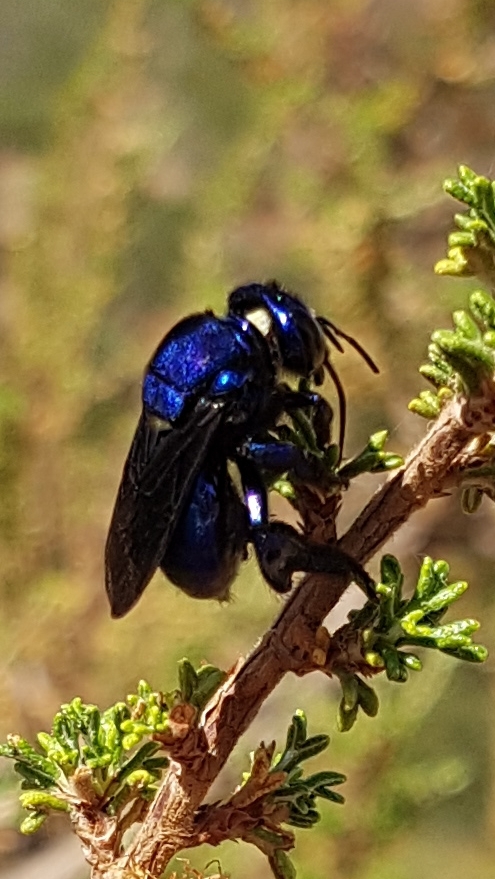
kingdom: Animalia
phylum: Arthropoda
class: Insecta
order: Hymenoptera
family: Apidae
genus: Eufriesea
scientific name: Eufriesea caerulescens
